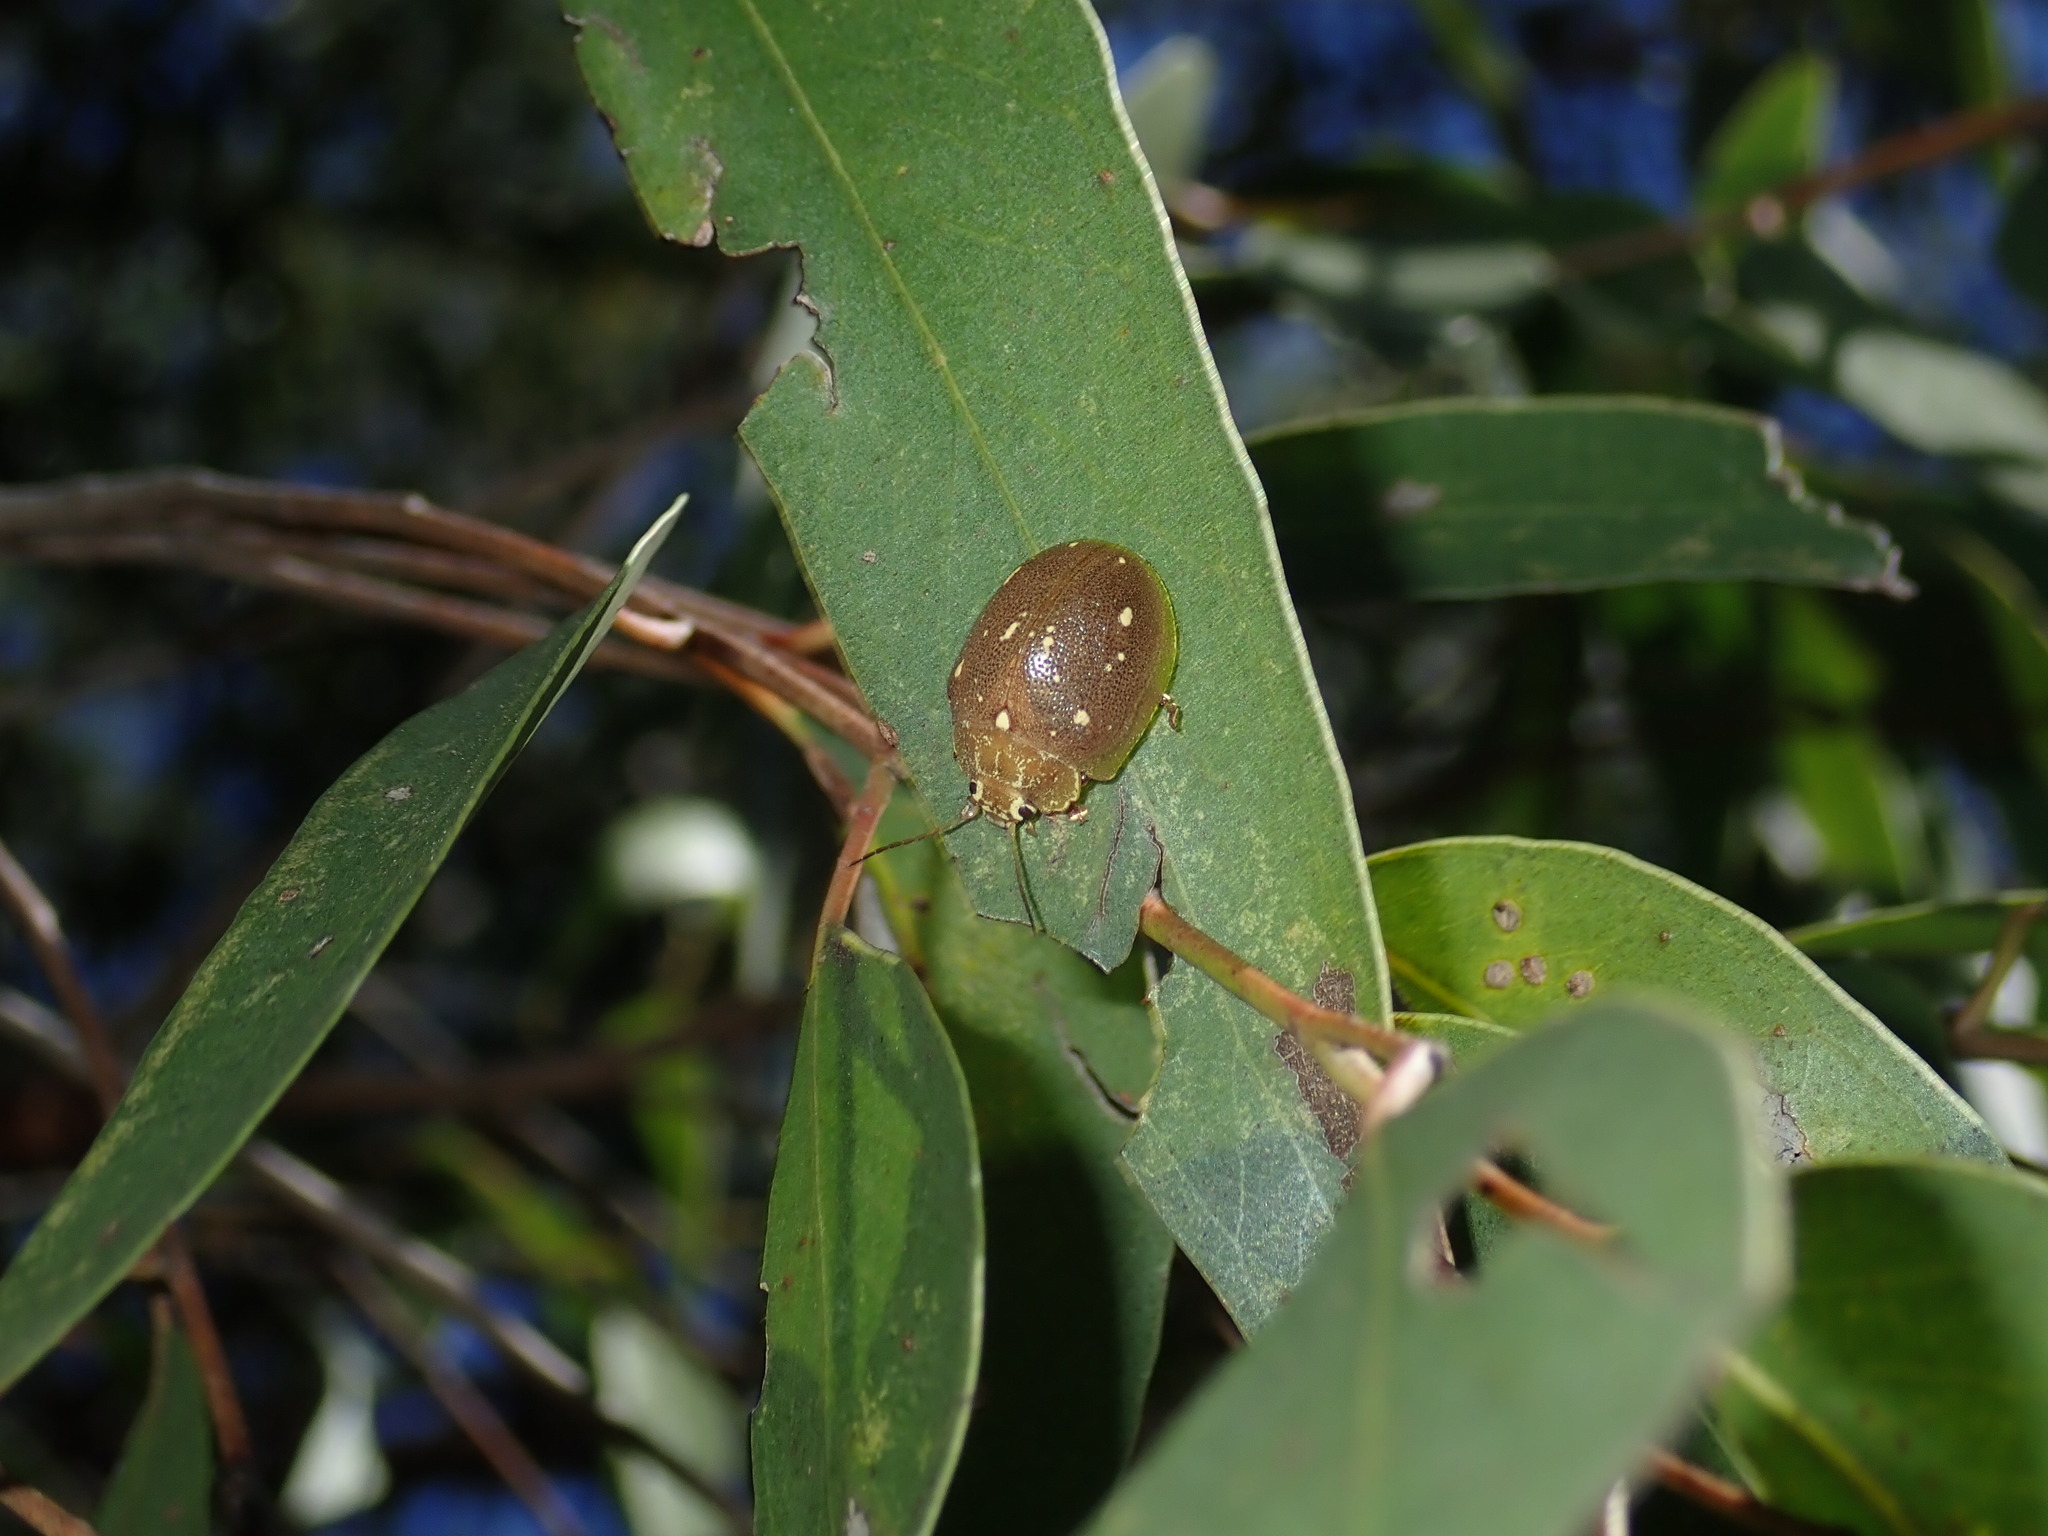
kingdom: Animalia
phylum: Arthropoda
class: Insecta
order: Coleoptera
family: Chrysomelidae
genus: Paropsis
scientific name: Paropsis
